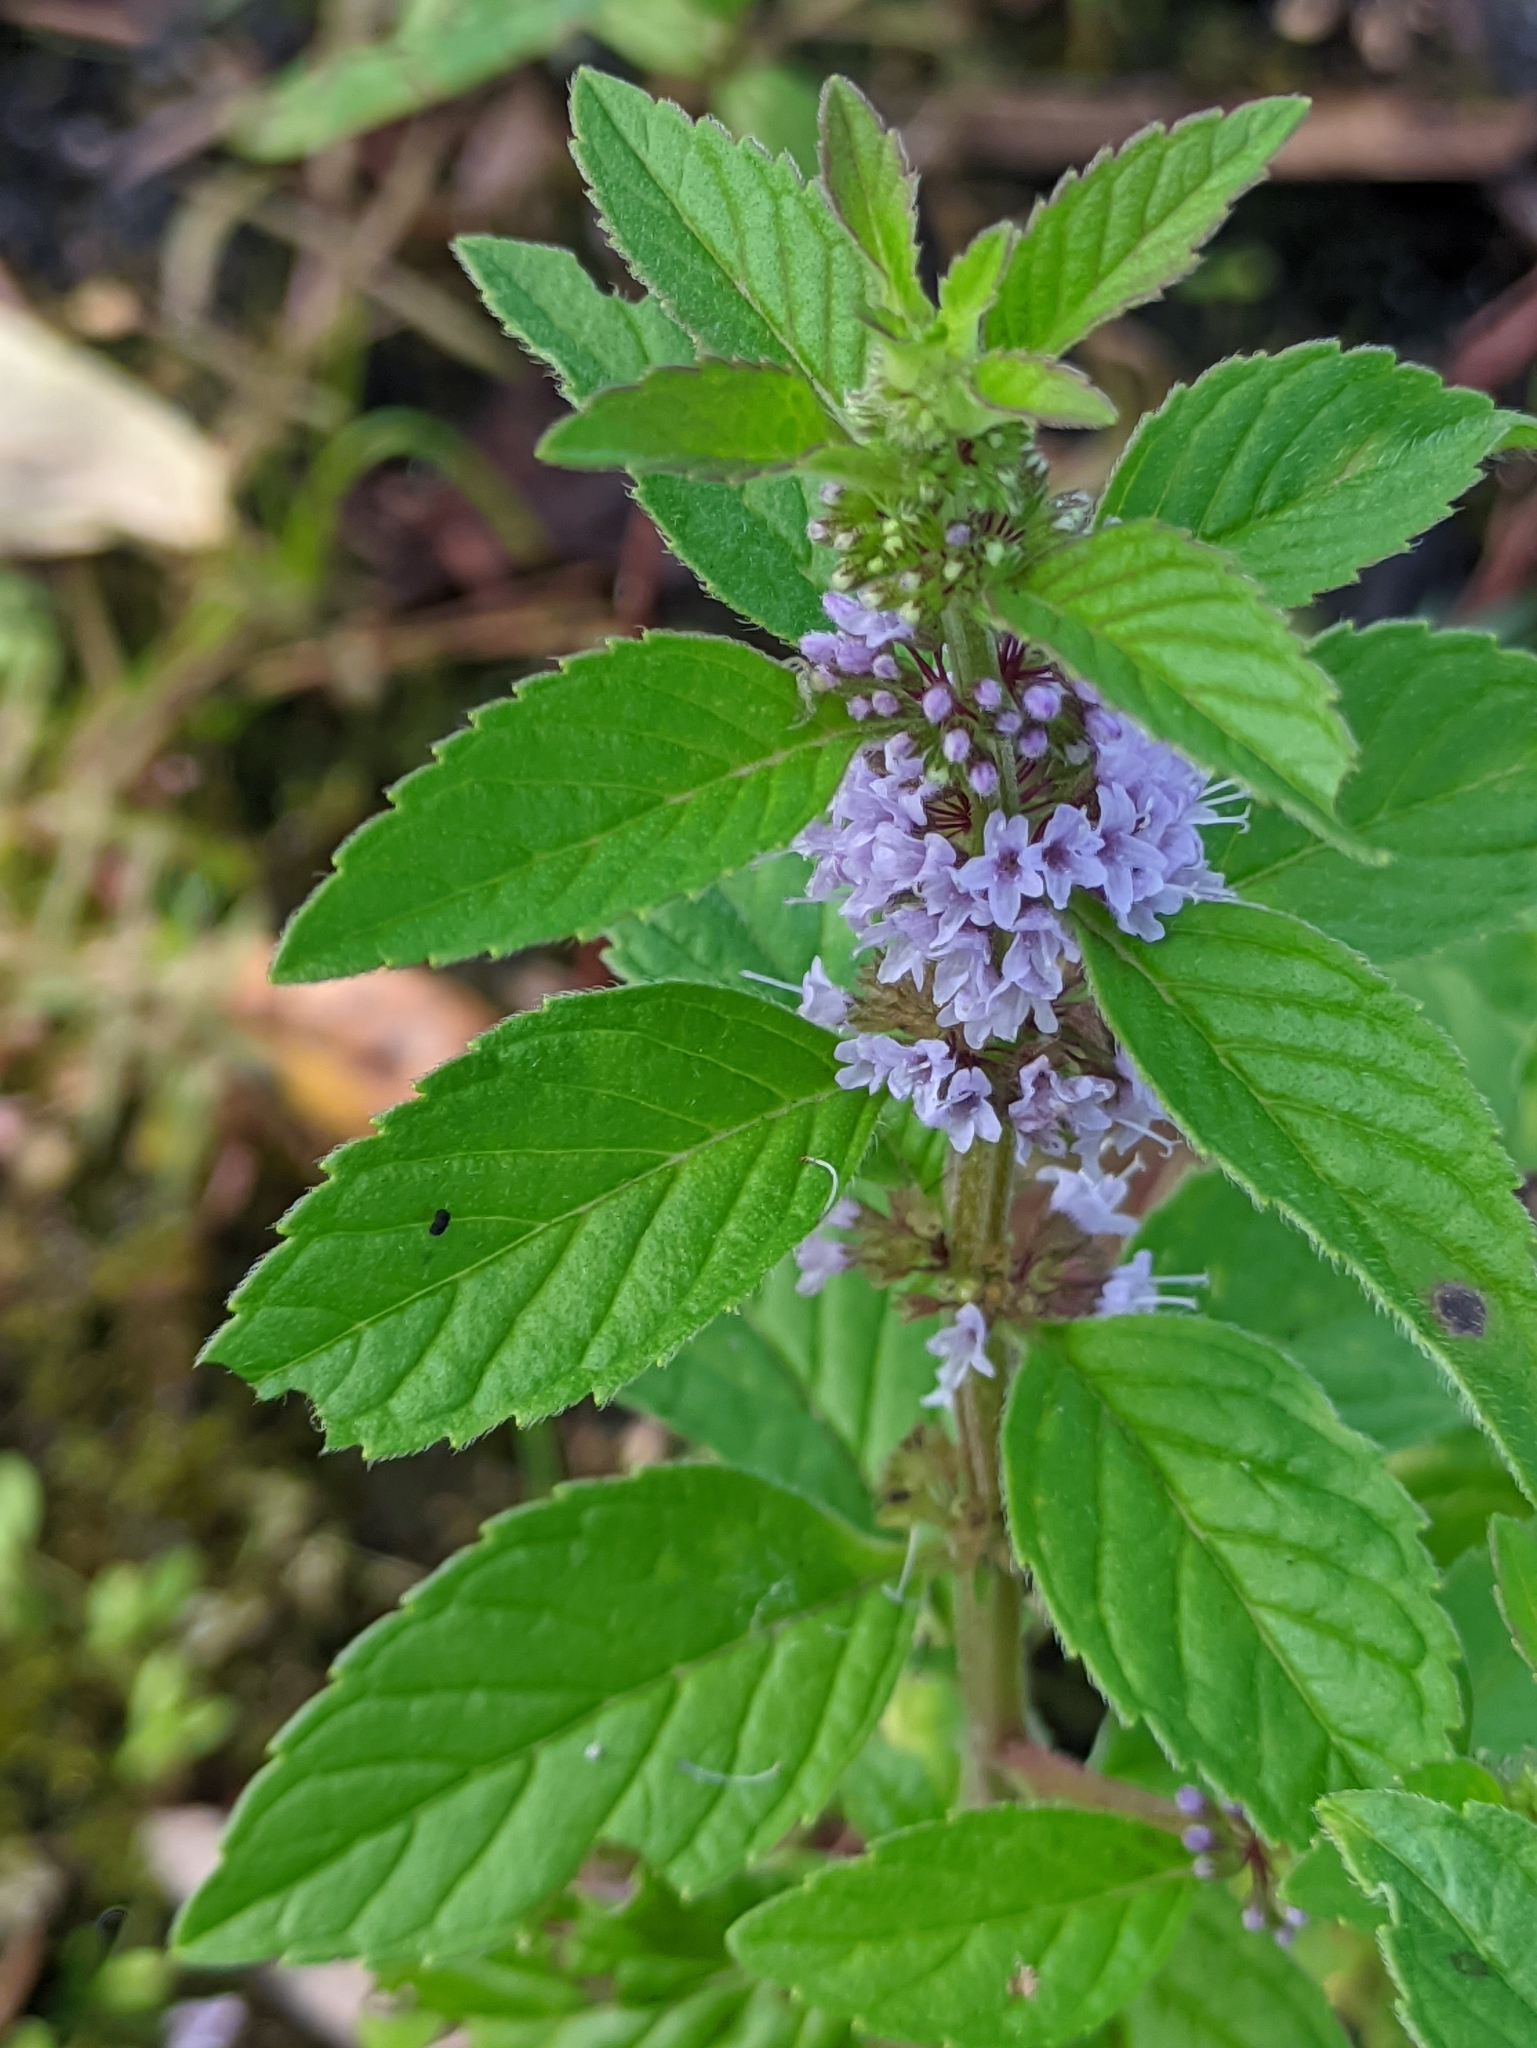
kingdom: Plantae
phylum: Tracheophyta
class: Magnoliopsida
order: Lamiales
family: Lamiaceae
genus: Mentha
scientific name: Mentha arvensis
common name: Corn mint
